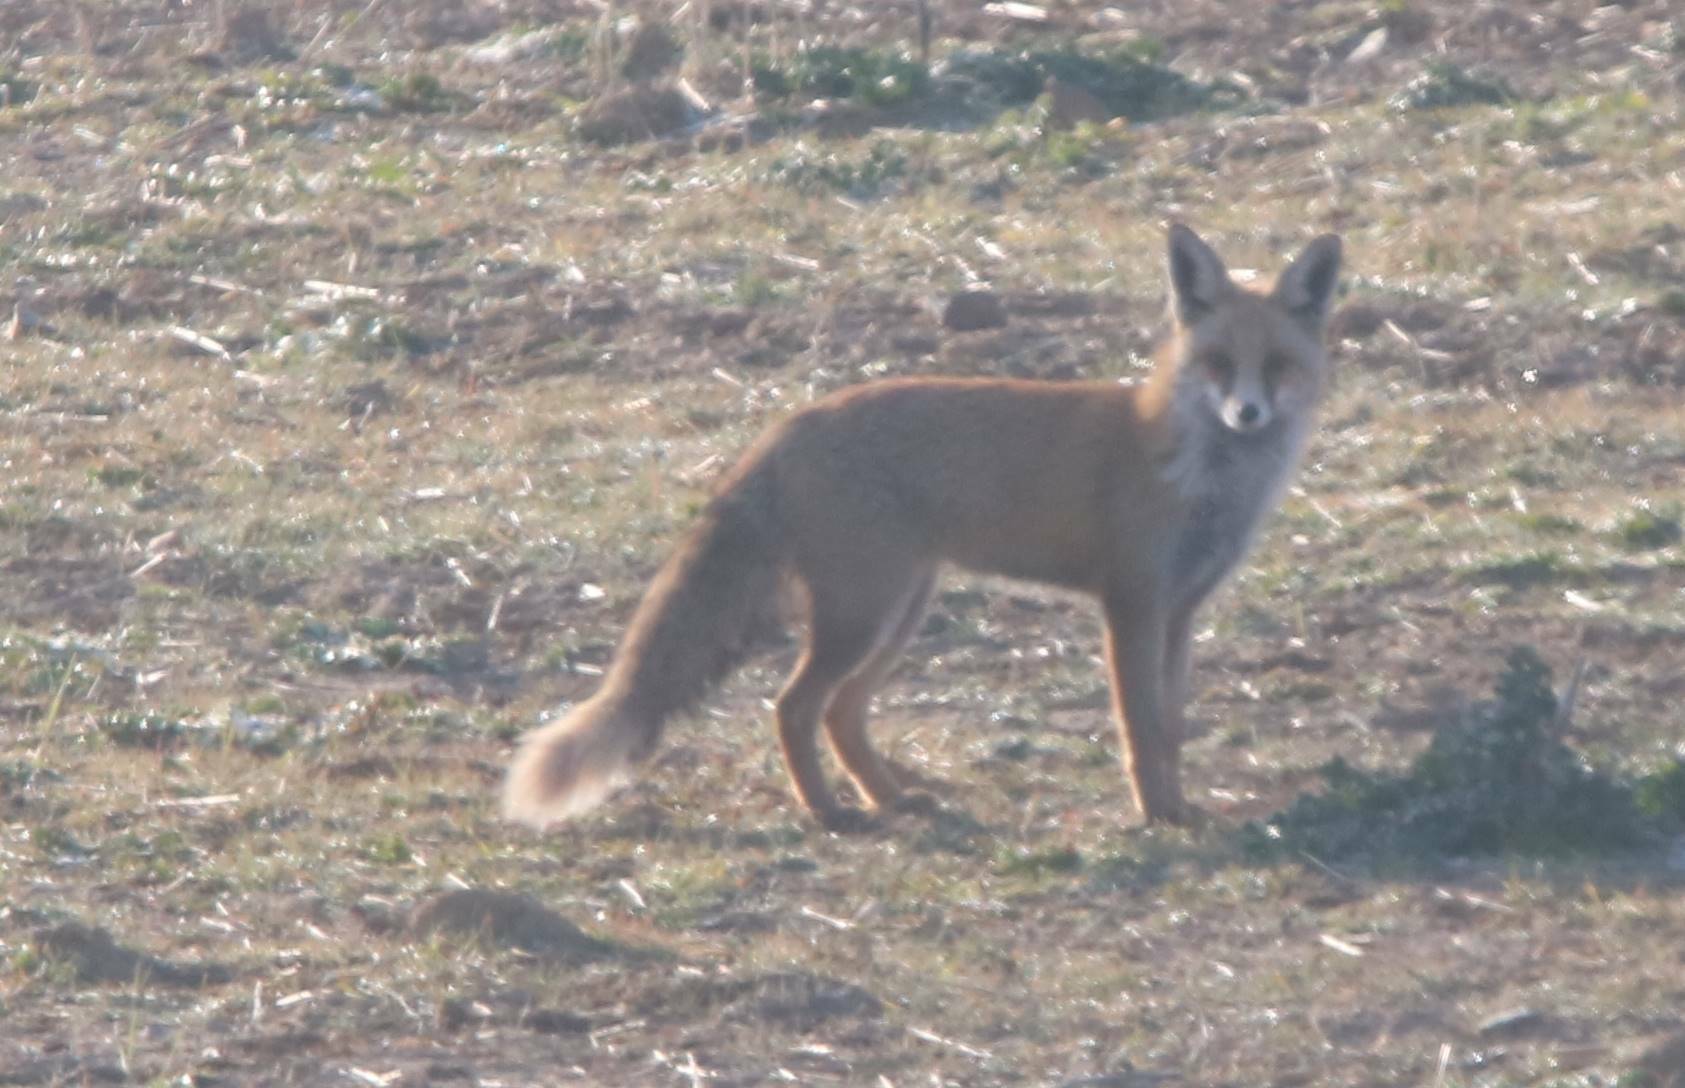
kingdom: Animalia
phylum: Chordata
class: Mammalia
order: Carnivora
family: Canidae
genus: Vulpes
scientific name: Vulpes vulpes
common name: Red fox
